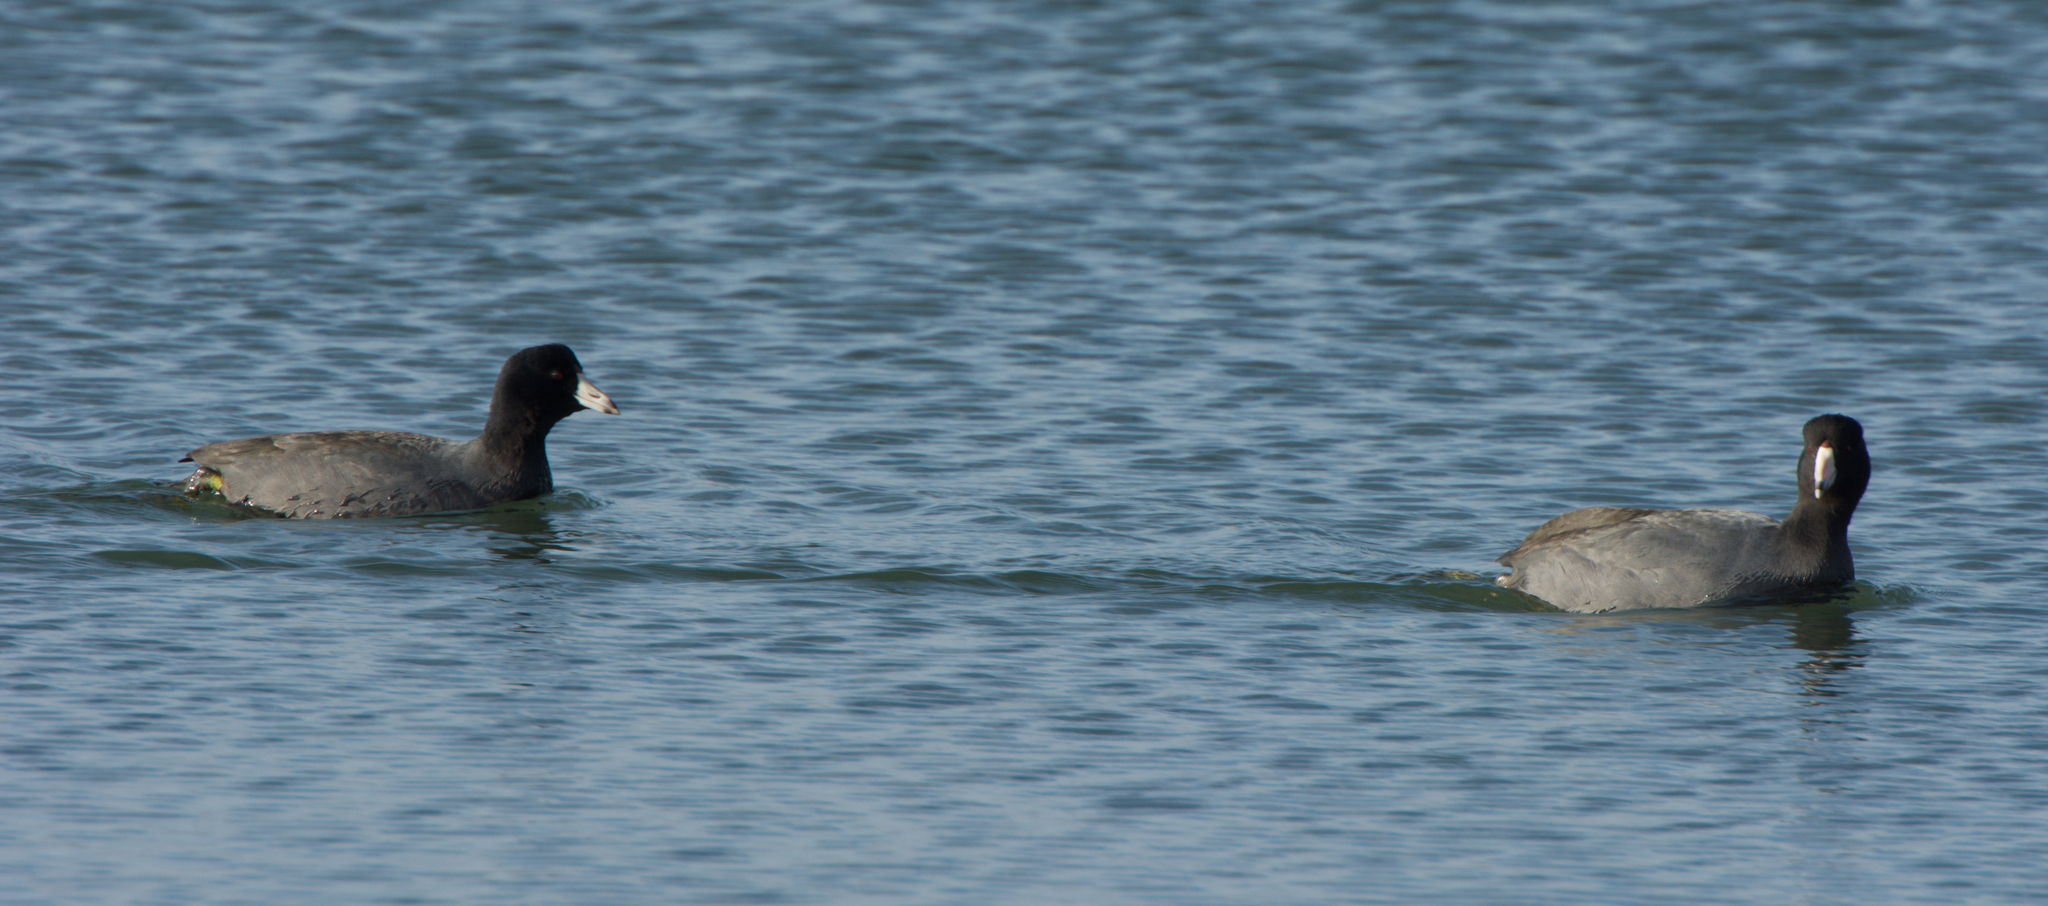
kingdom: Animalia
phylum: Chordata
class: Aves
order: Gruiformes
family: Rallidae
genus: Fulica
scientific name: Fulica americana
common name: American coot
